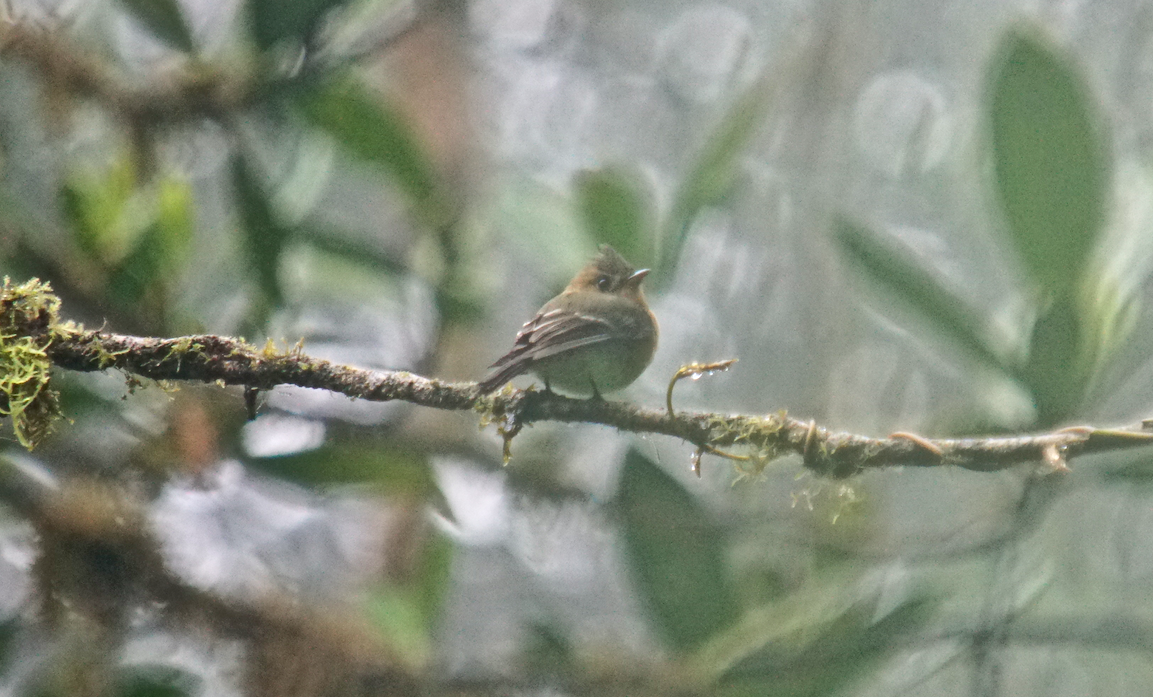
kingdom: Animalia
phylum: Chordata
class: Aves
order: Passeriformes
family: Tyrannidae
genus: Mitrephanes
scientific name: Mitrephanes phaeocercus
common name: Northern tufted flycatcher
